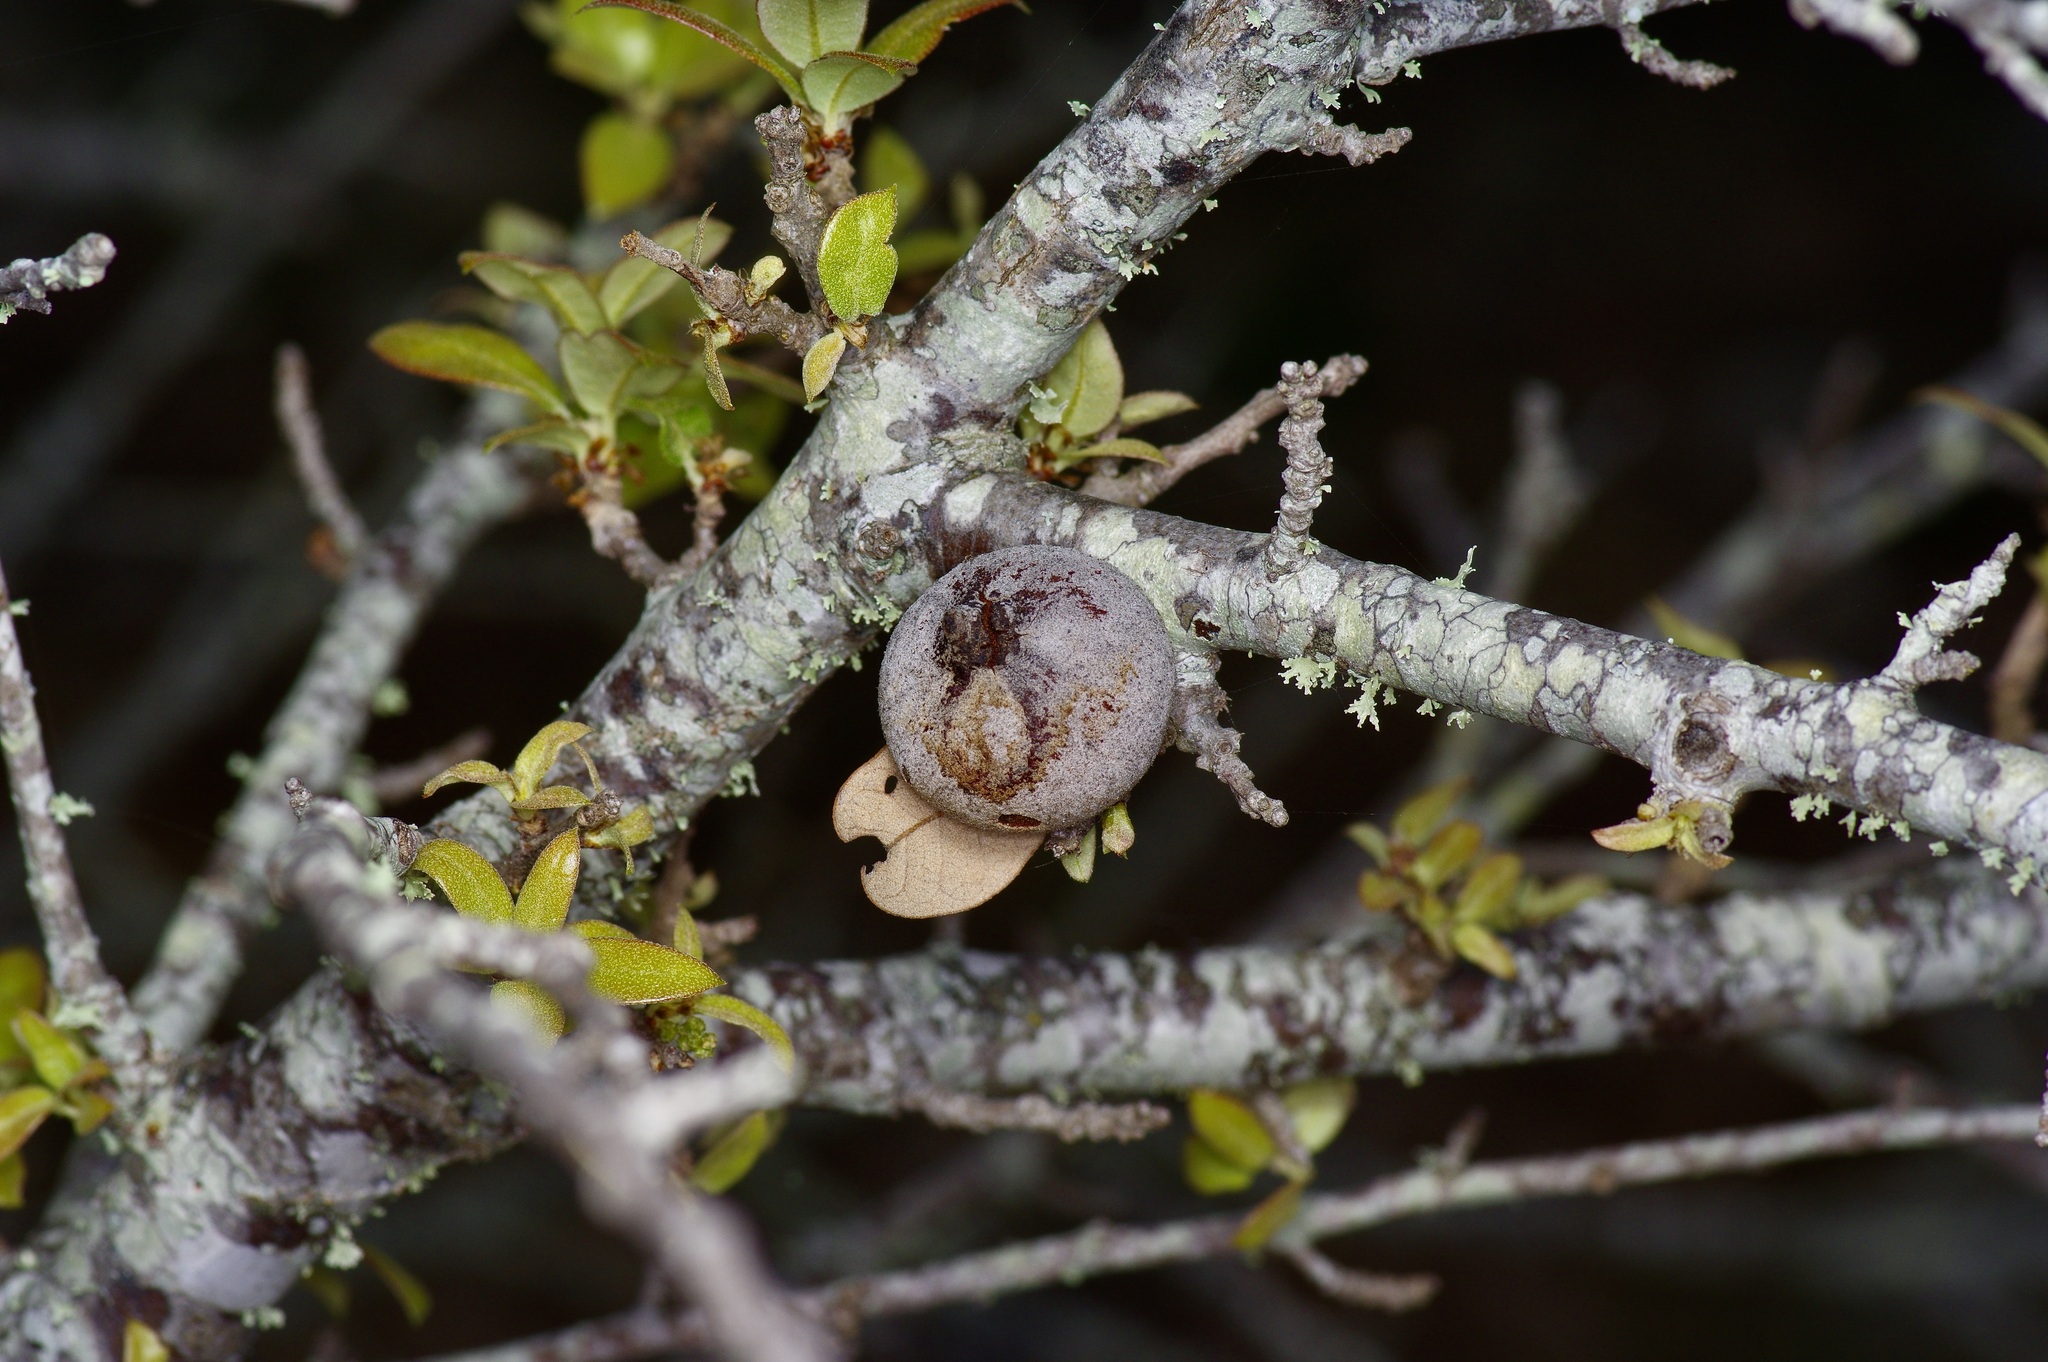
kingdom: Animalia
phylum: Arthropoda
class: Insecta
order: Hymenoptera
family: Cynipidae
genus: Disholcaspis
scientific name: Disholcaspis
